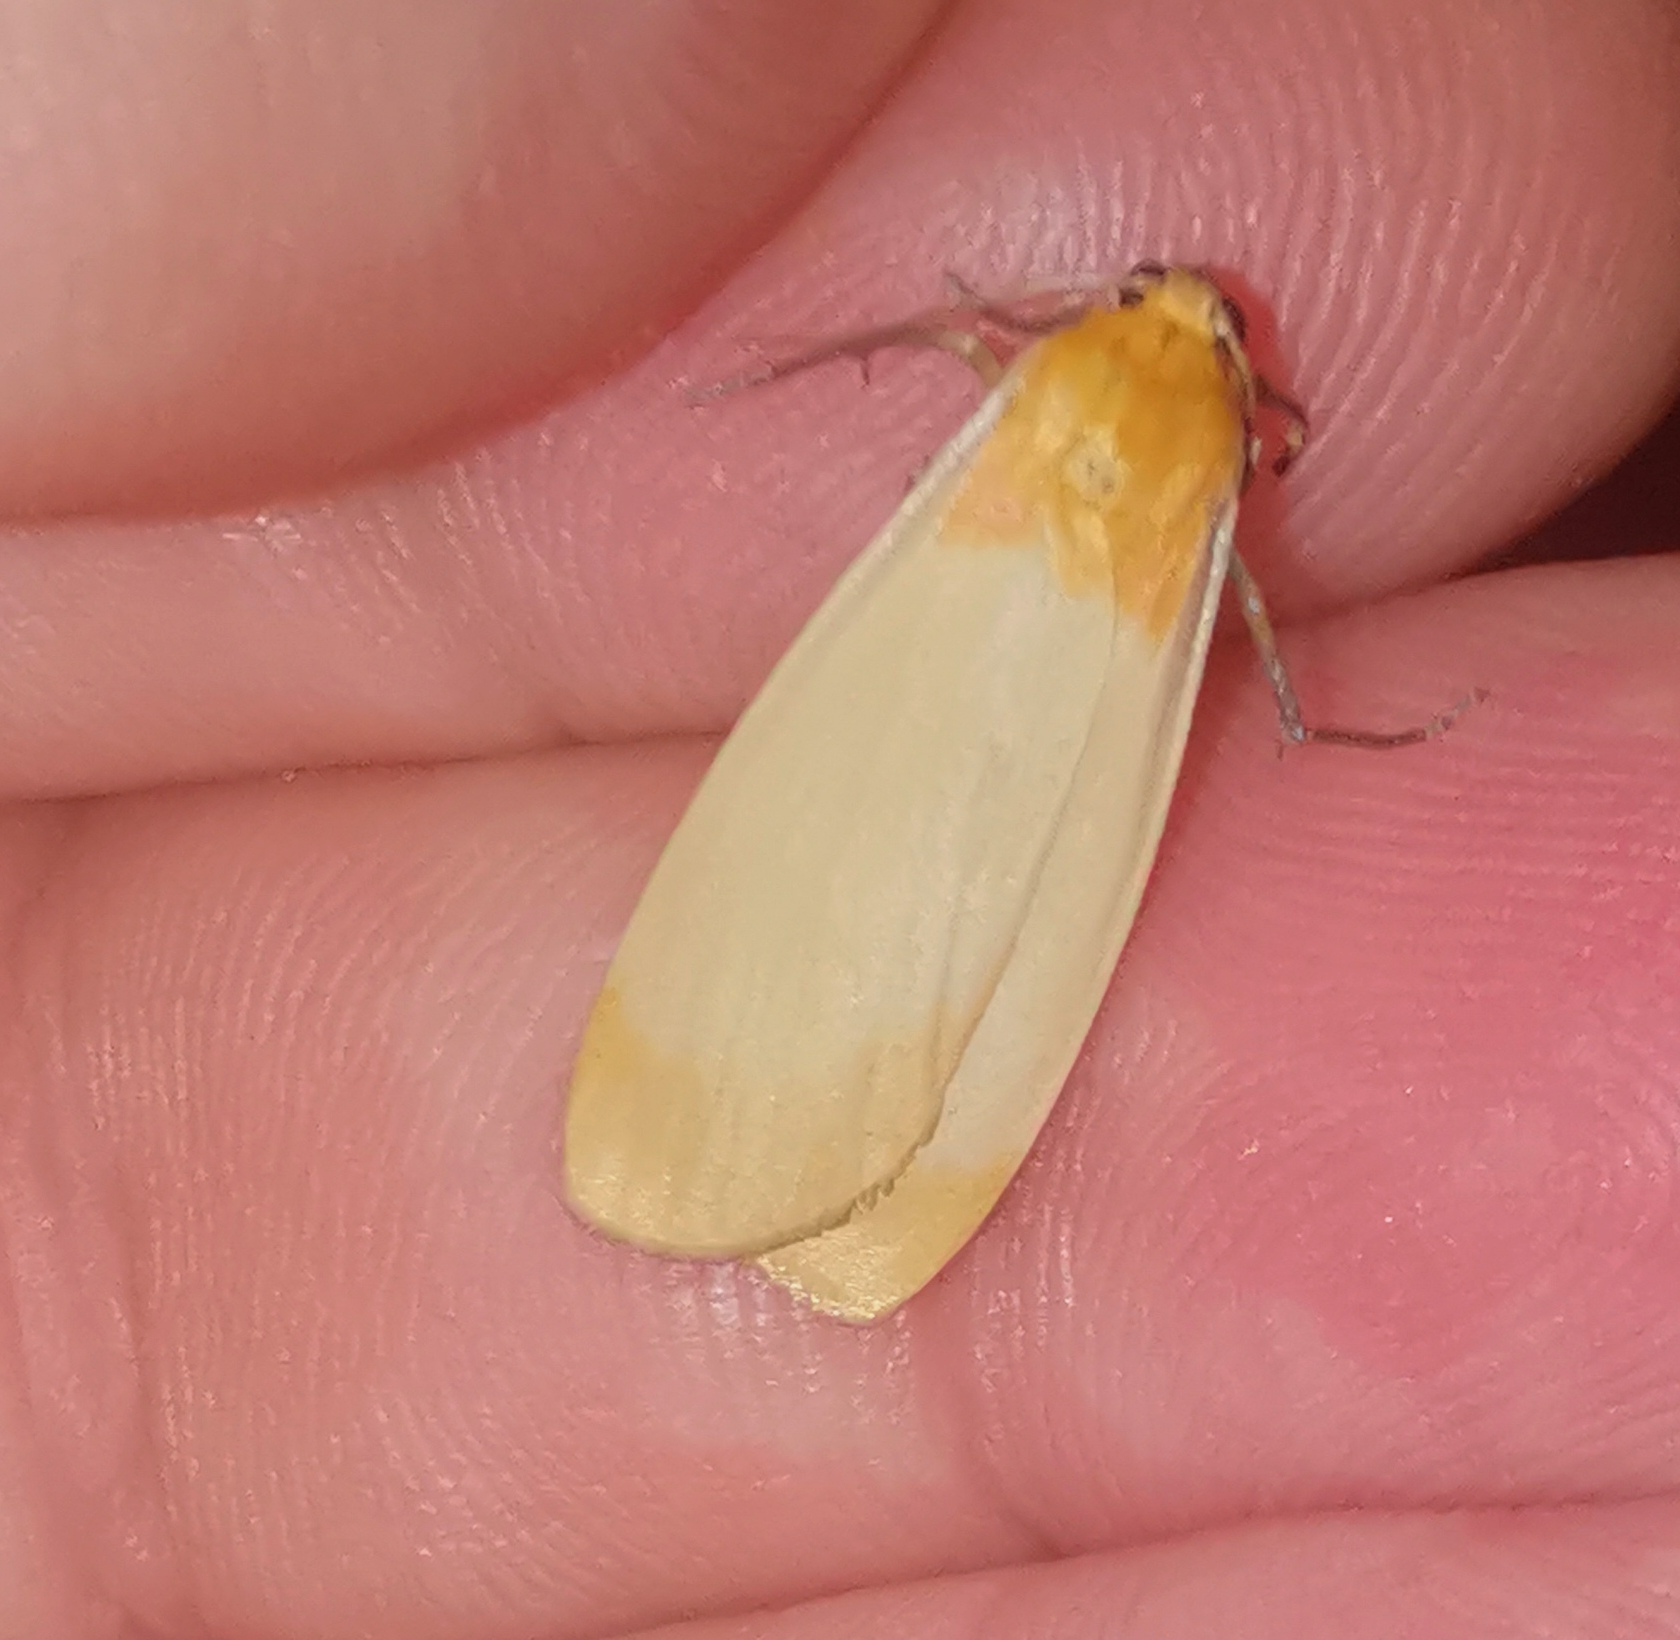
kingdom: Animalia
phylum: Arthropoda
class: Insecta
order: Lepidoptera
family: Erebidae
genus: Lithosia
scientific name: Lithosia quadra
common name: Four-spotted footman
